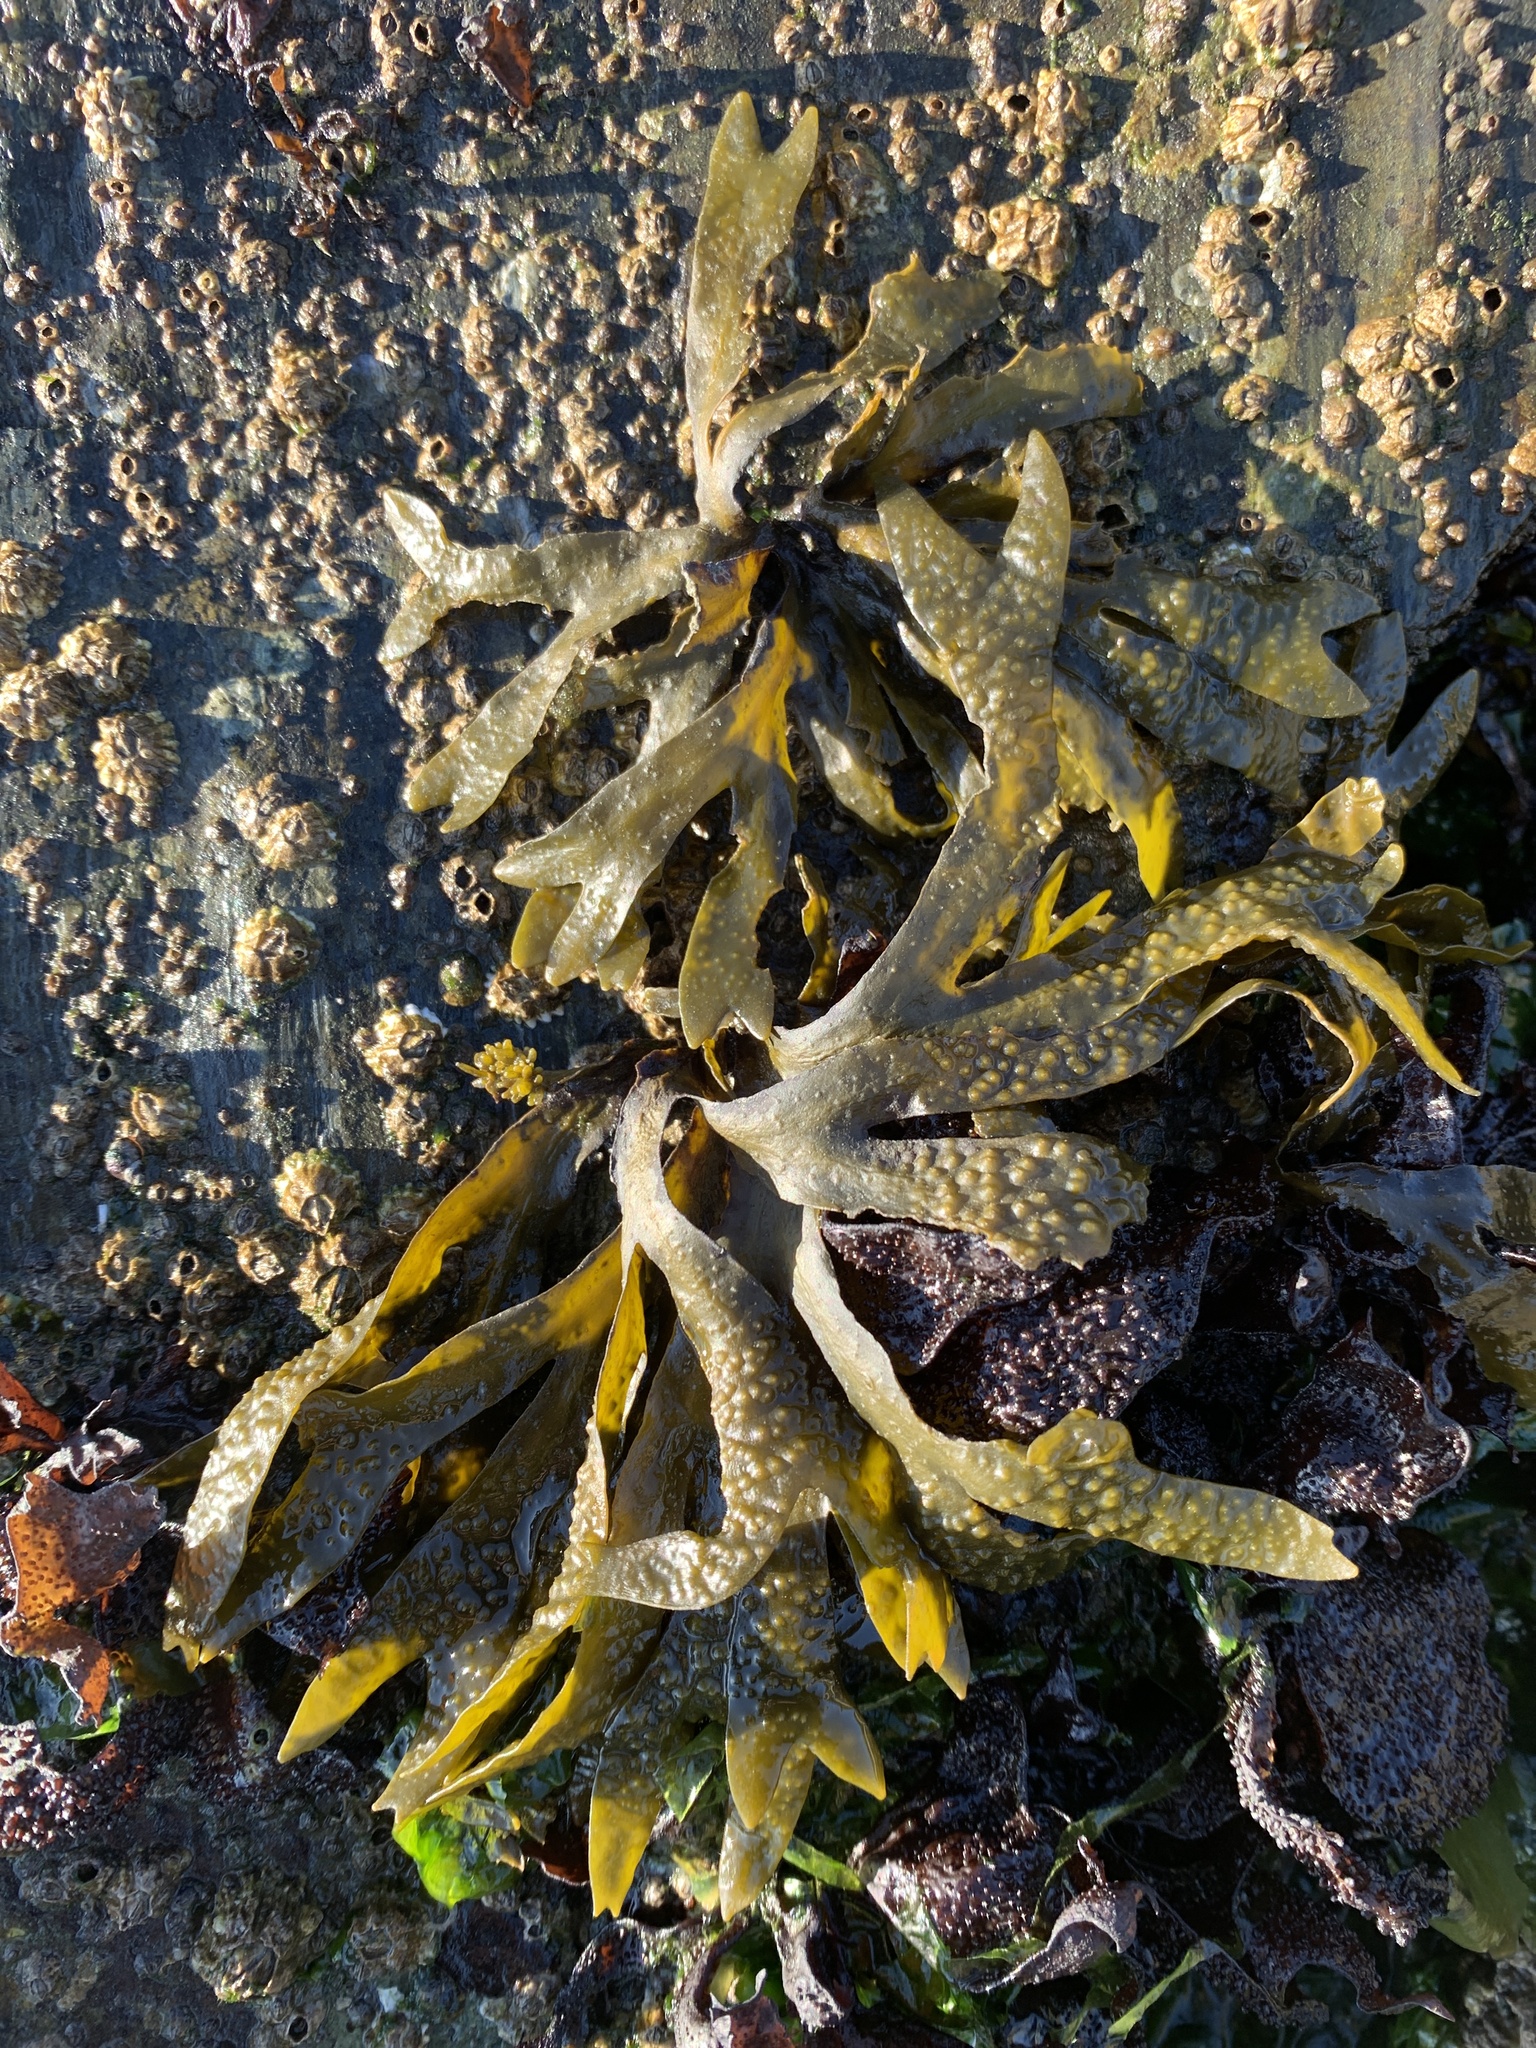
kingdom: Chromista
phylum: Ochrophyta
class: Phaeophyceae
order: Fucales
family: Fucaceae
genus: Fucus
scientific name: Fucus distichus
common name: Rockweed
